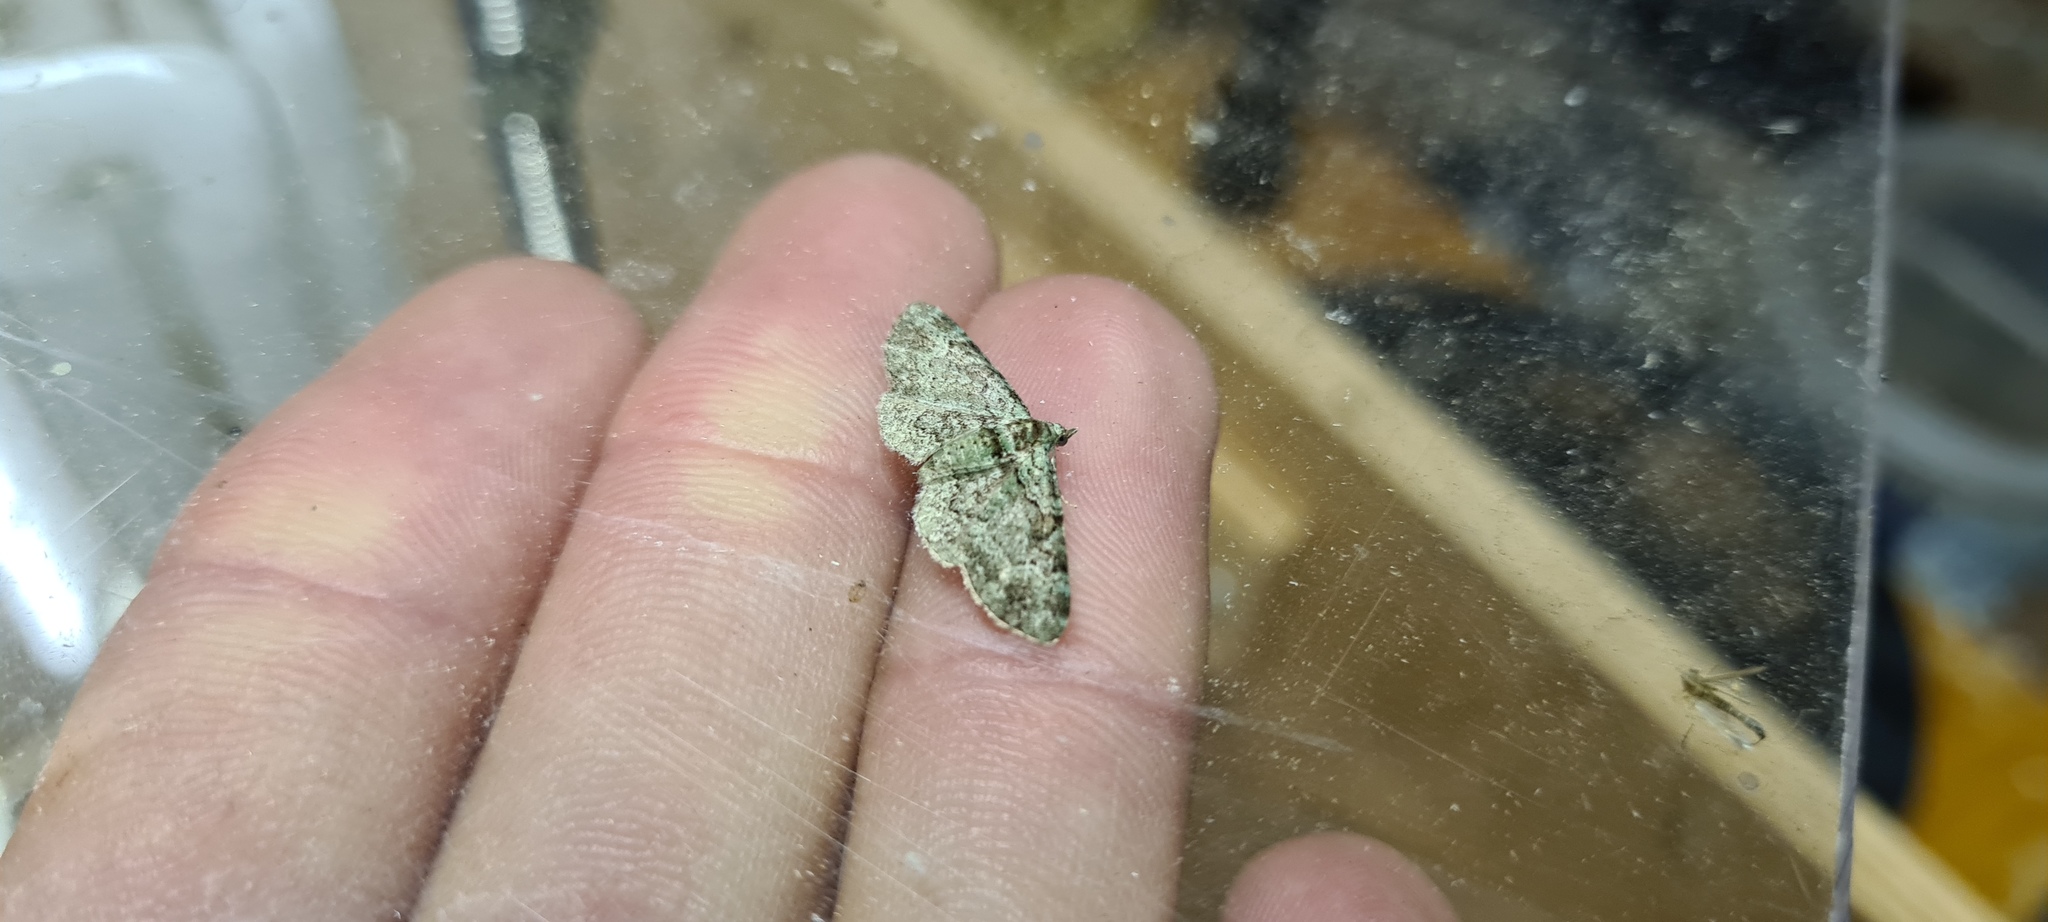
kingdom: Animalia
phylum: Arthropoda
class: Insecta
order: Lepidoptera
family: Geometridae
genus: Pasiphila
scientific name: Pasiphila rectangulata
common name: Green pug
